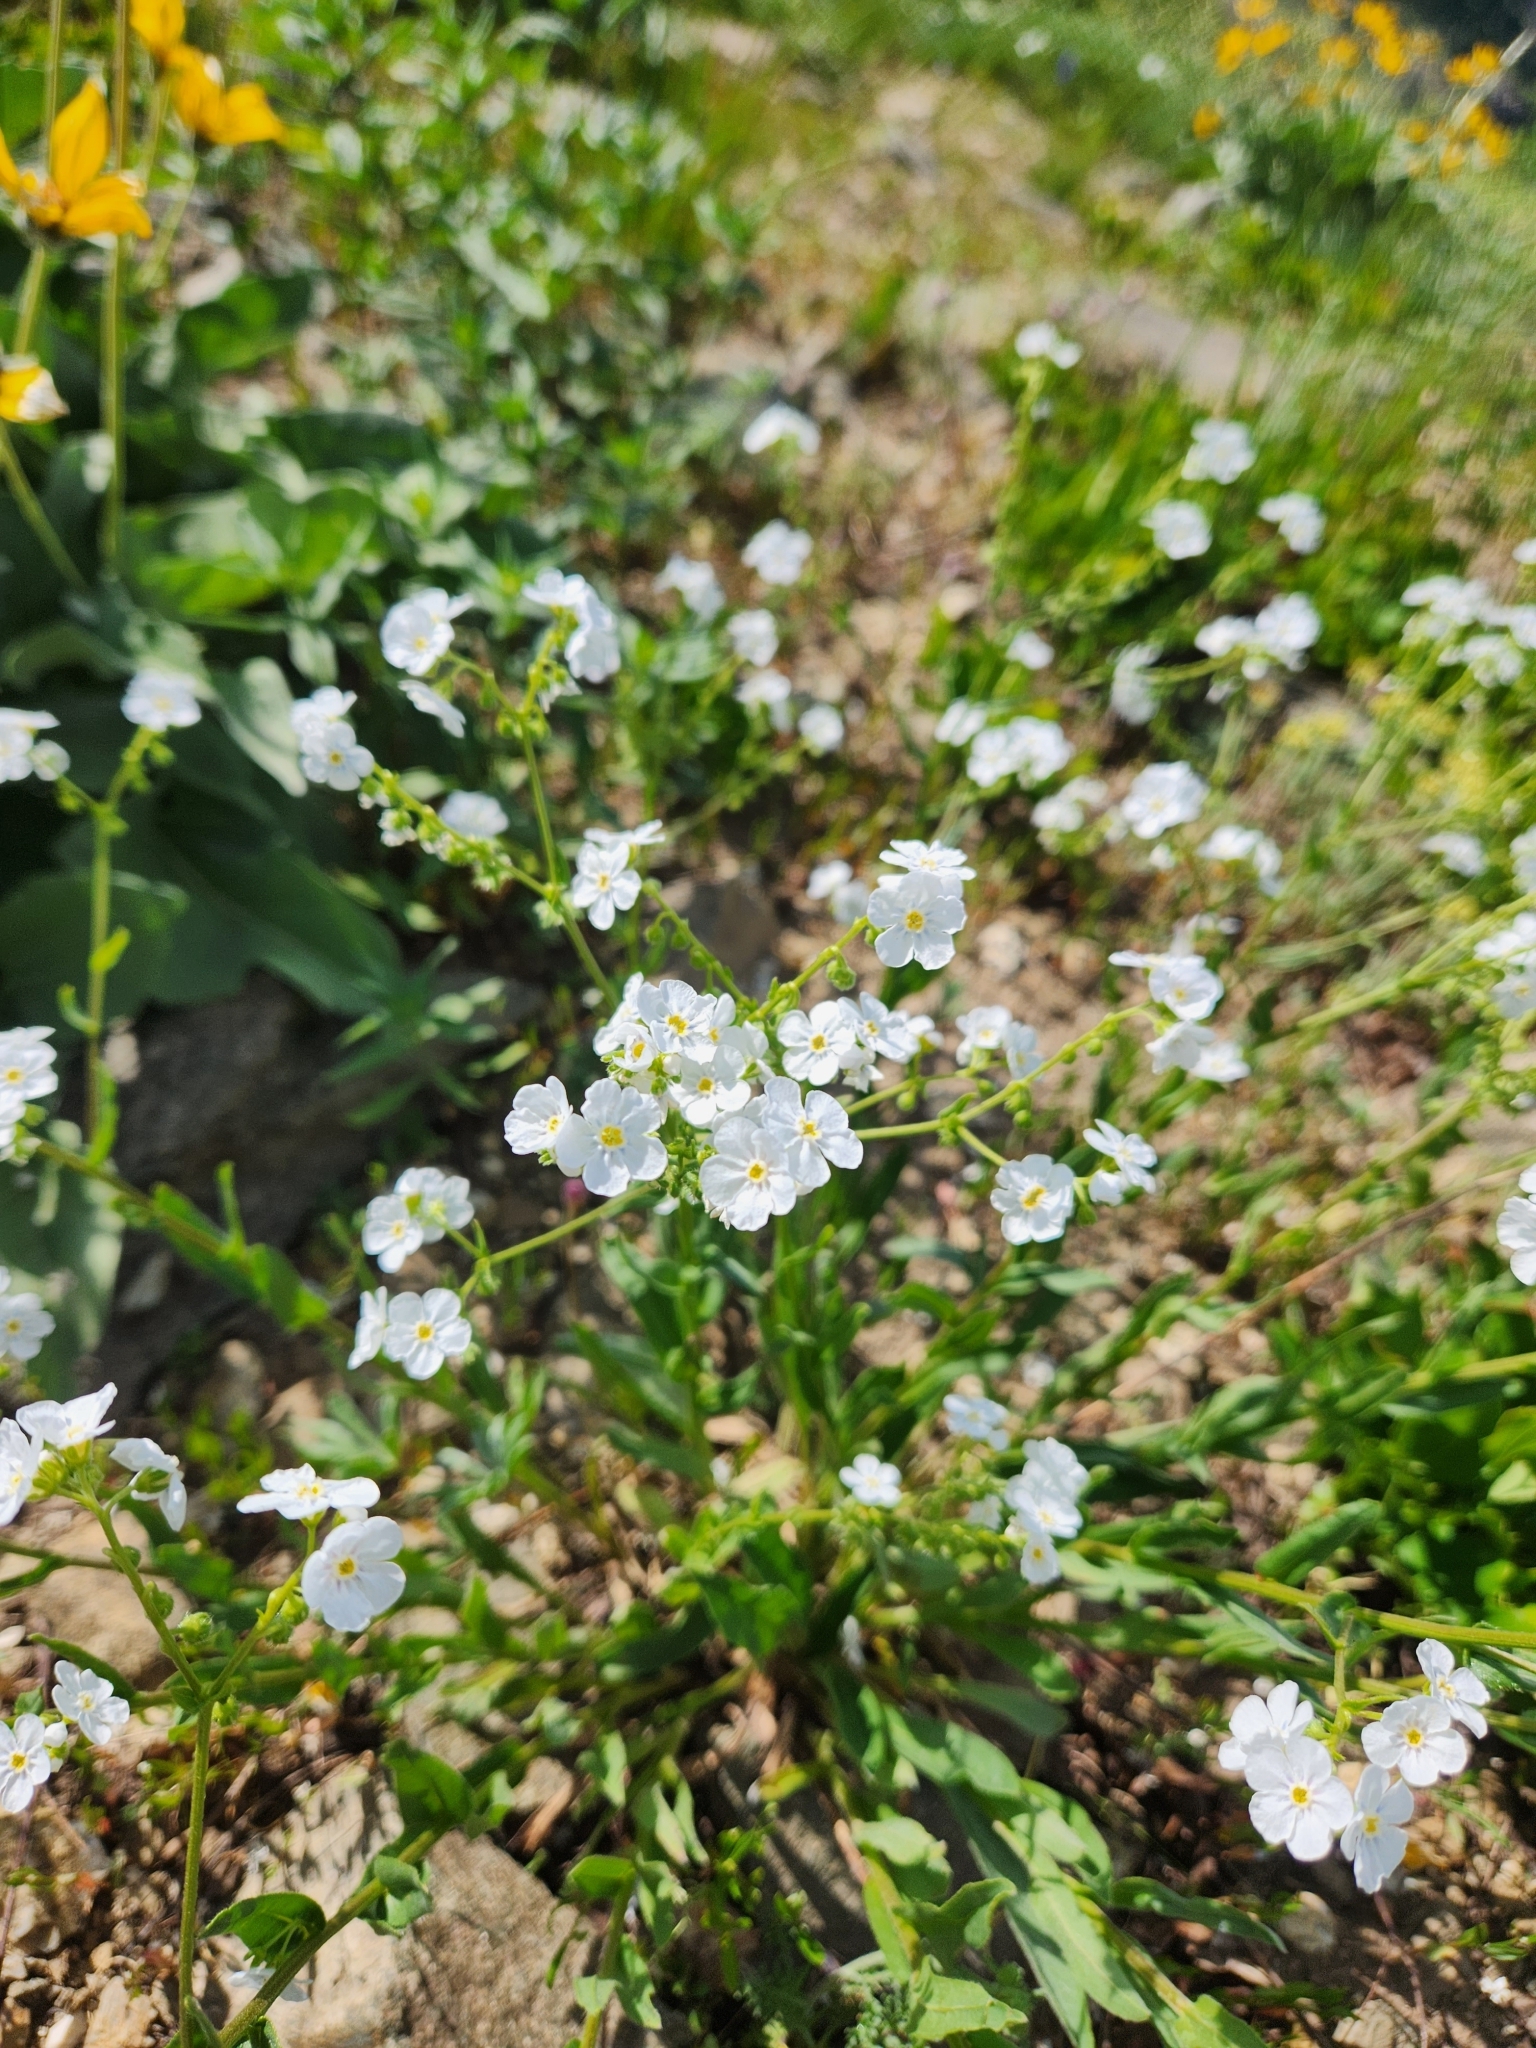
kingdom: Plantae
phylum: Tracheophyta
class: Magnoliopsida
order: Boraginales
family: Boraginaceae
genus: Hackelia
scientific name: Hackelia patens
